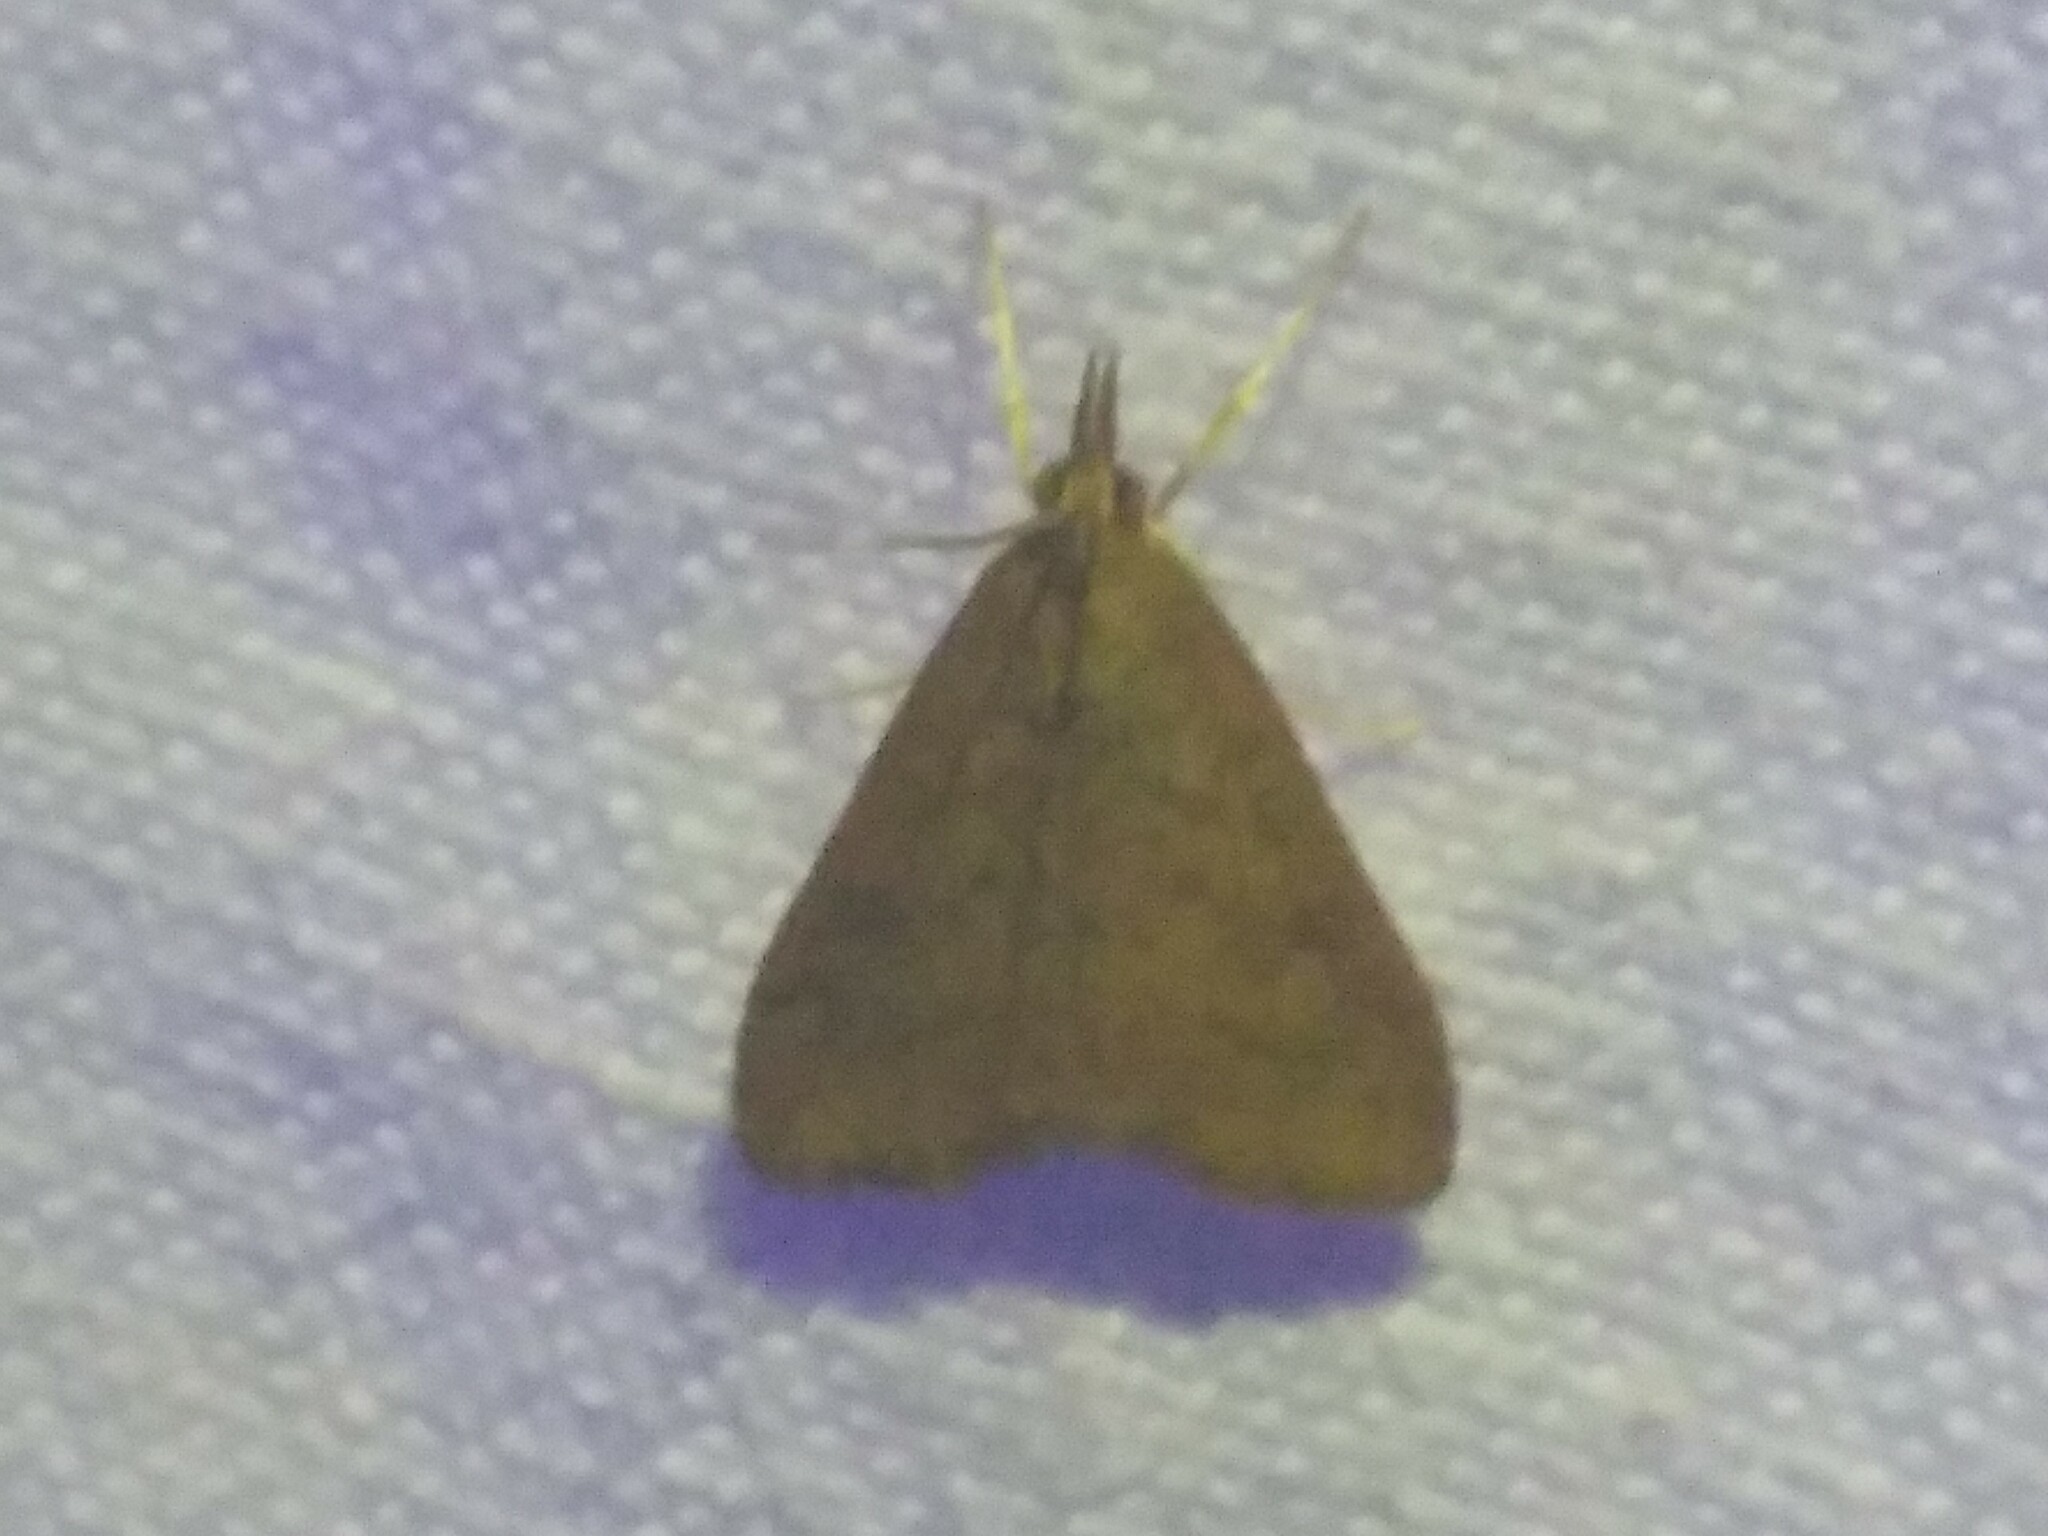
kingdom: Animalia
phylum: Arthropoda
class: Insecta
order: Lepidoptera
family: Crambidae
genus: Udea
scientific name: Udea rubigalis
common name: Celery leaftier moth
